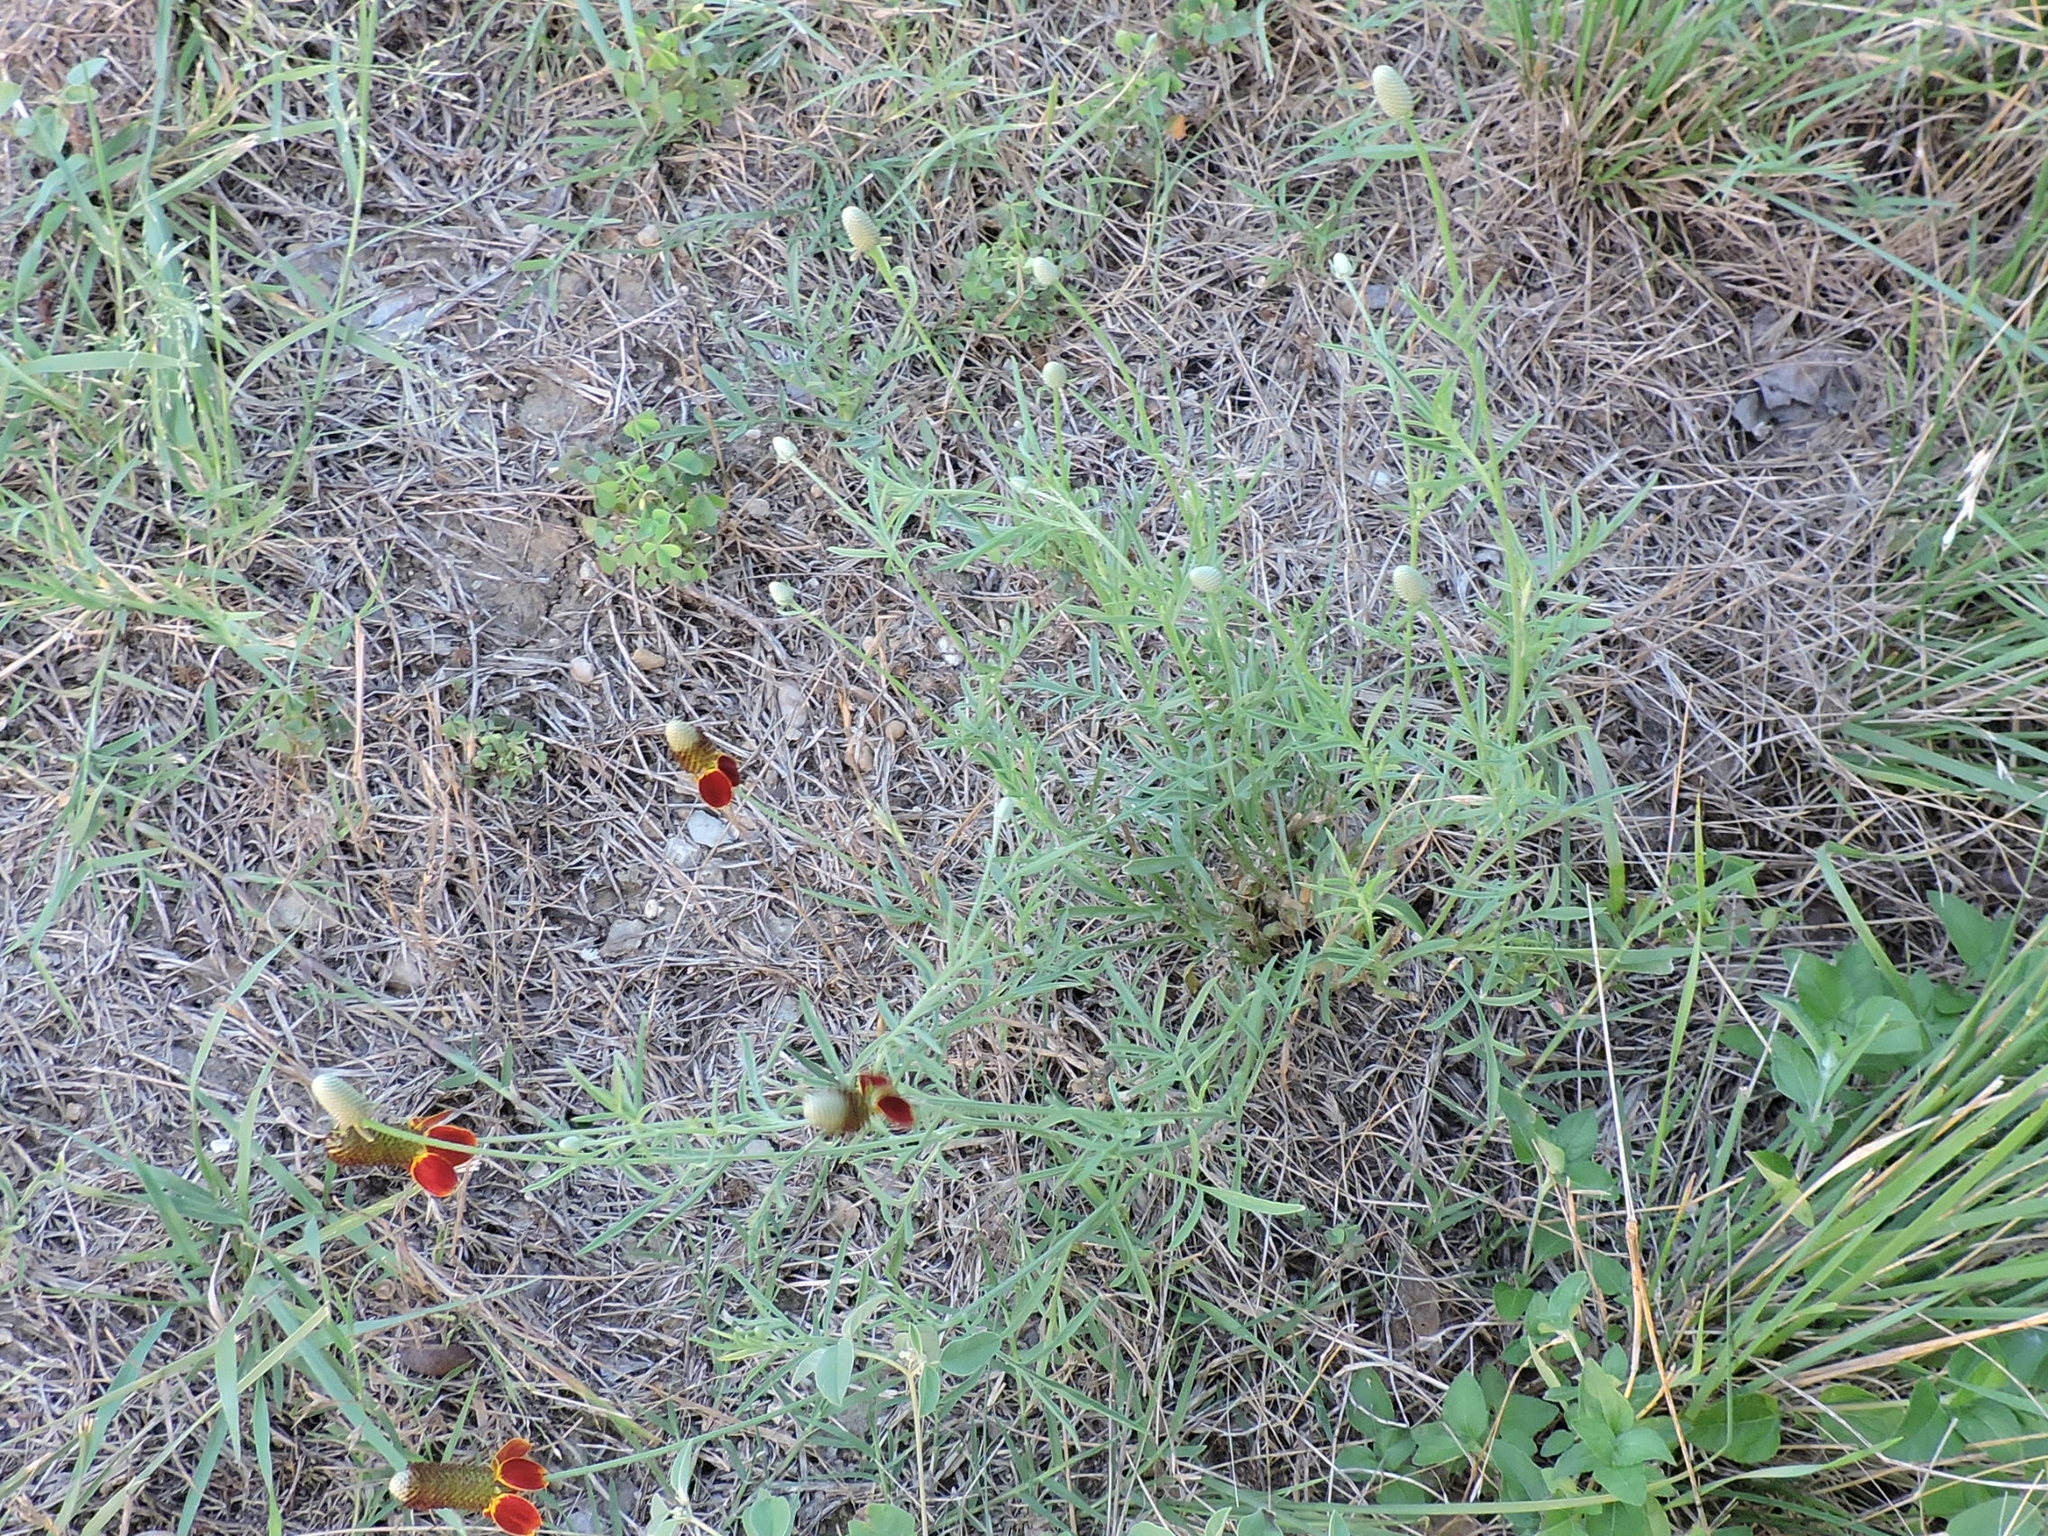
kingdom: Plantae
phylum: Tracheophyta
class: Magnoliopsida
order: Asterales
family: Asteraceae
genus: Ratibida
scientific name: Ratibida columnifera
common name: Prairie coneflower
